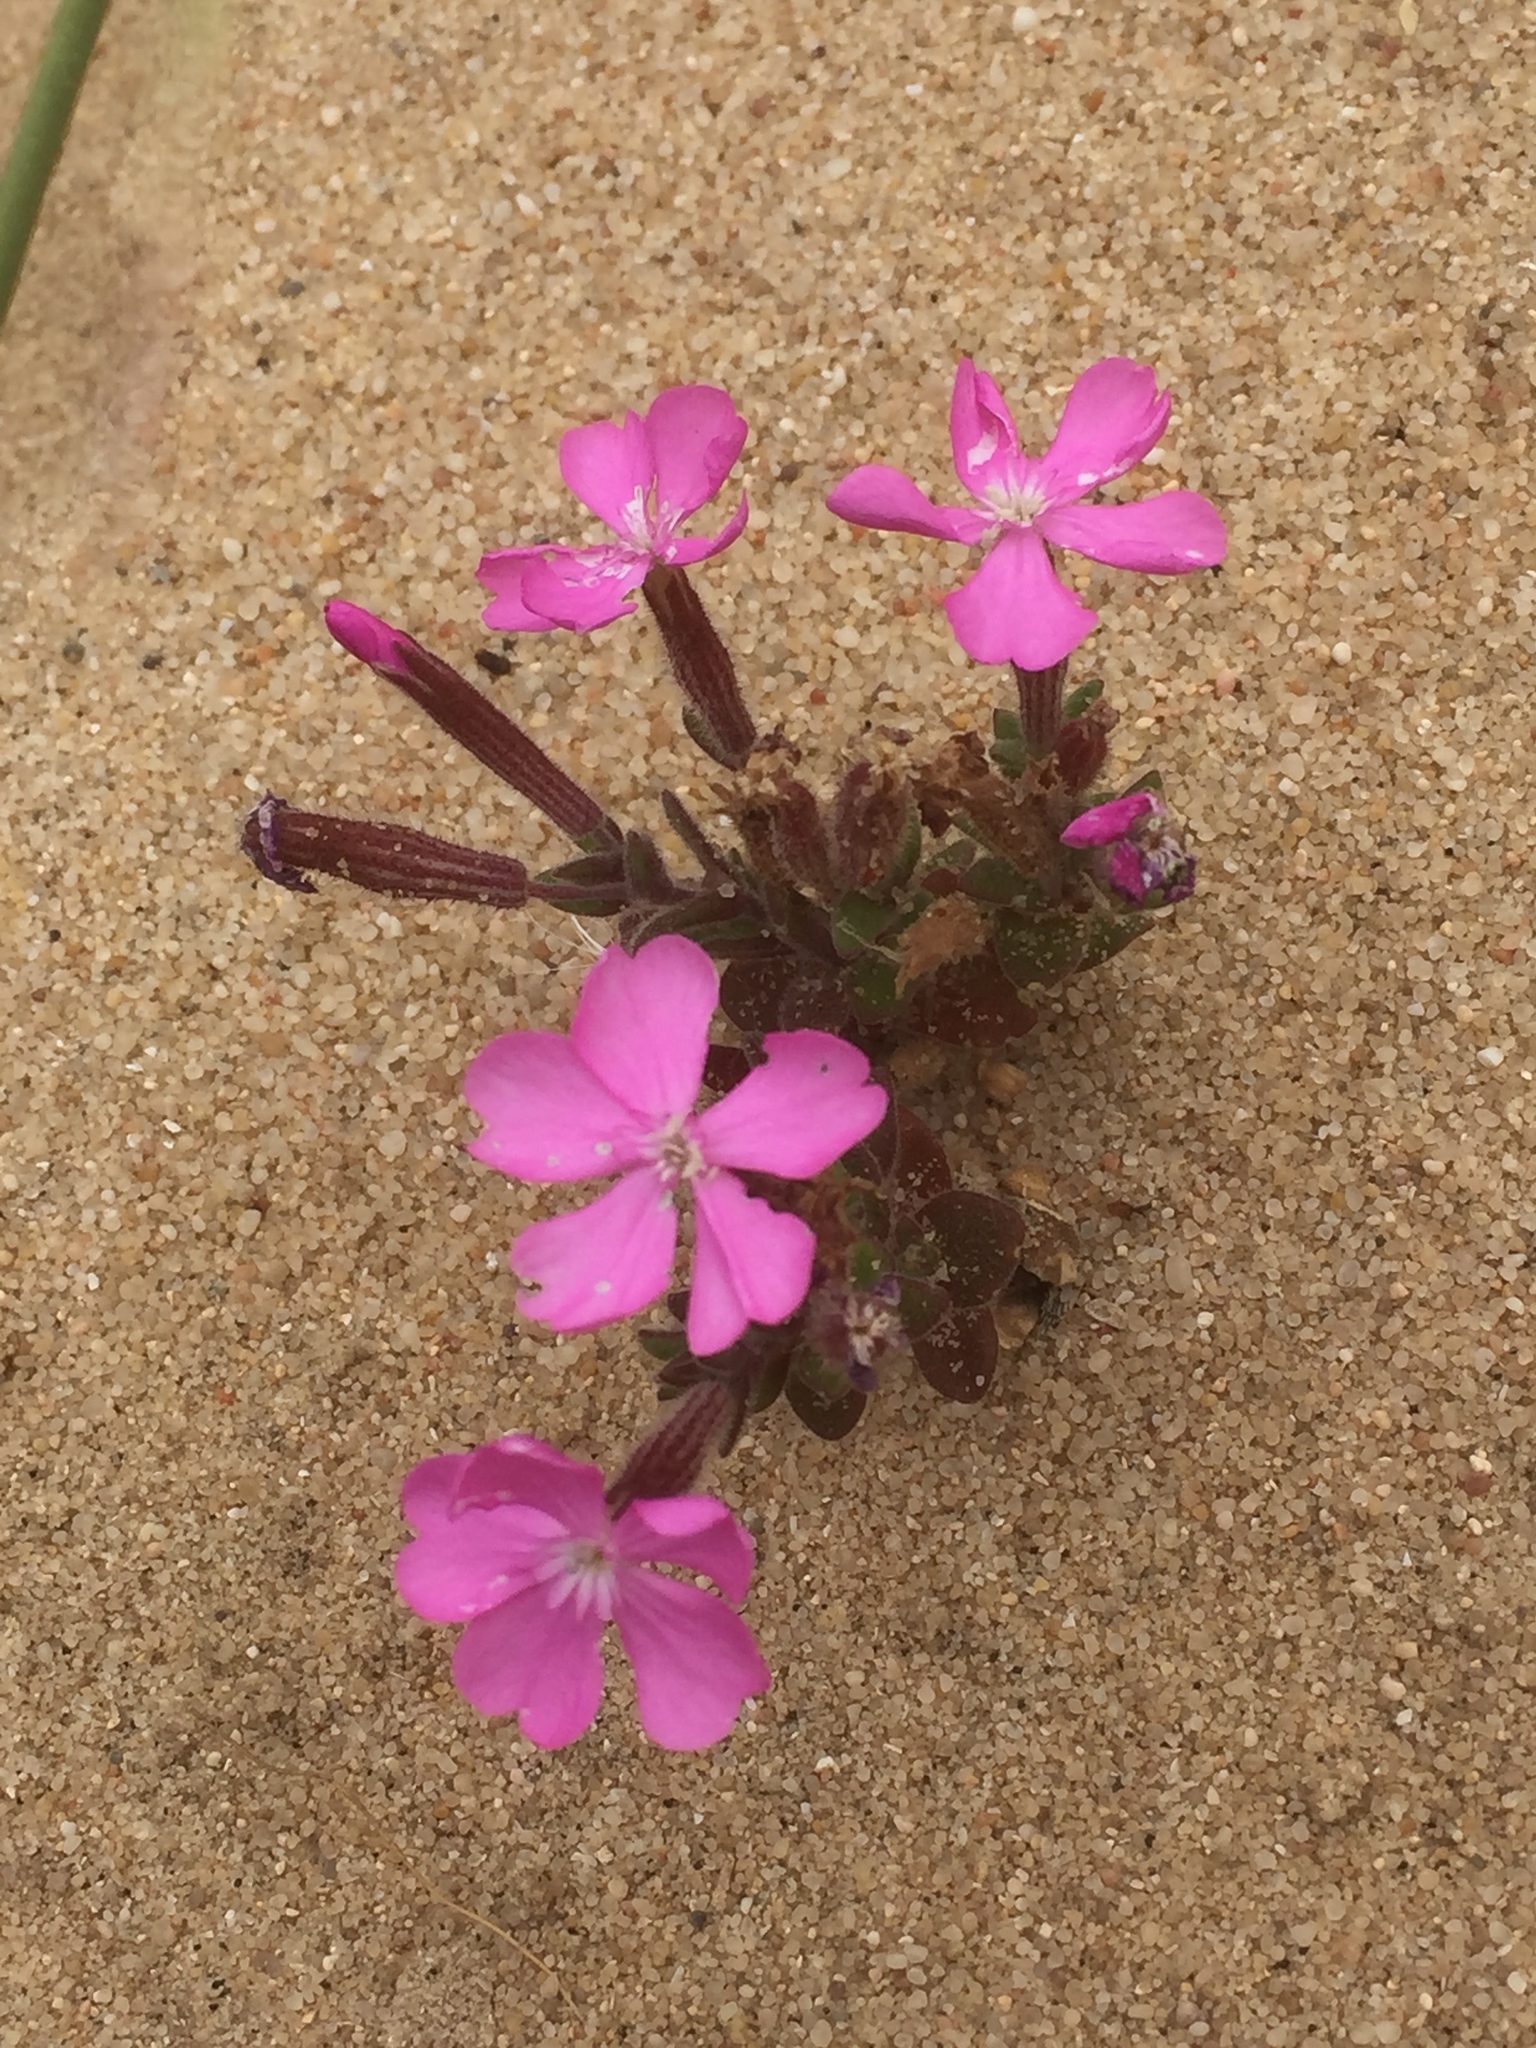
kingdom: Plantae
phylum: Tracheophyta
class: Magnoliopsida
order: Caryophyllales
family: Caryophyllaceae
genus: Silene
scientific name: Silene littorea
